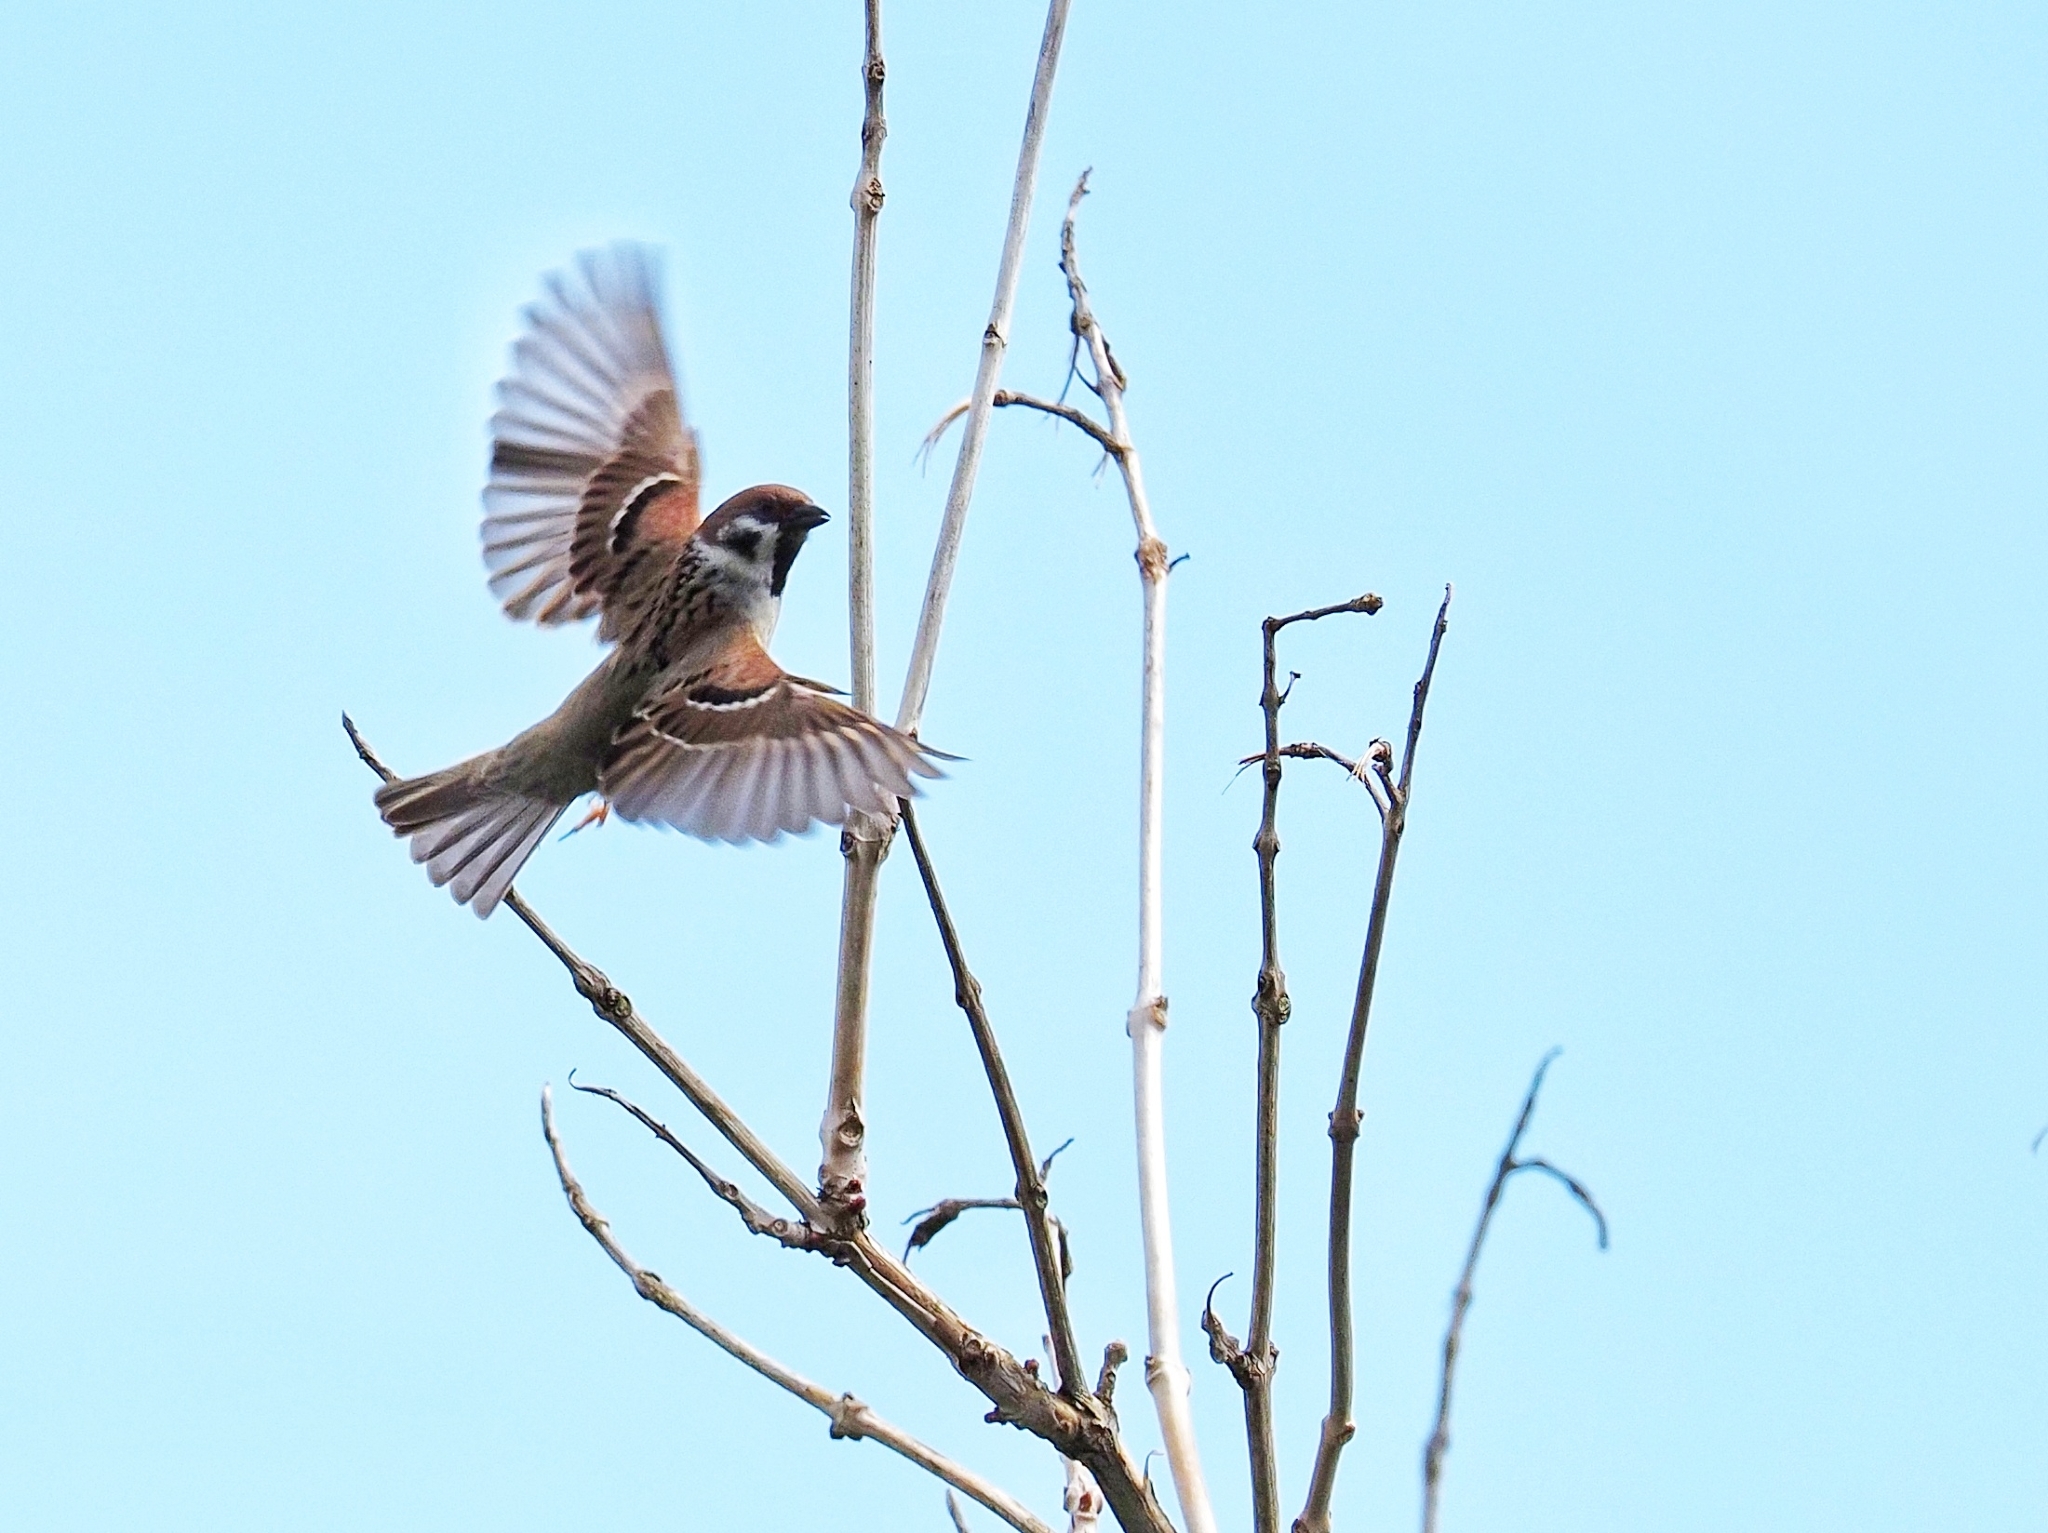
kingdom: Animalia
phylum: Chordata
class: Aves
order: Passeriformes
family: Passeridae
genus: Passer
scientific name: Passer montanus
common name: Eurasian tree sparrow
